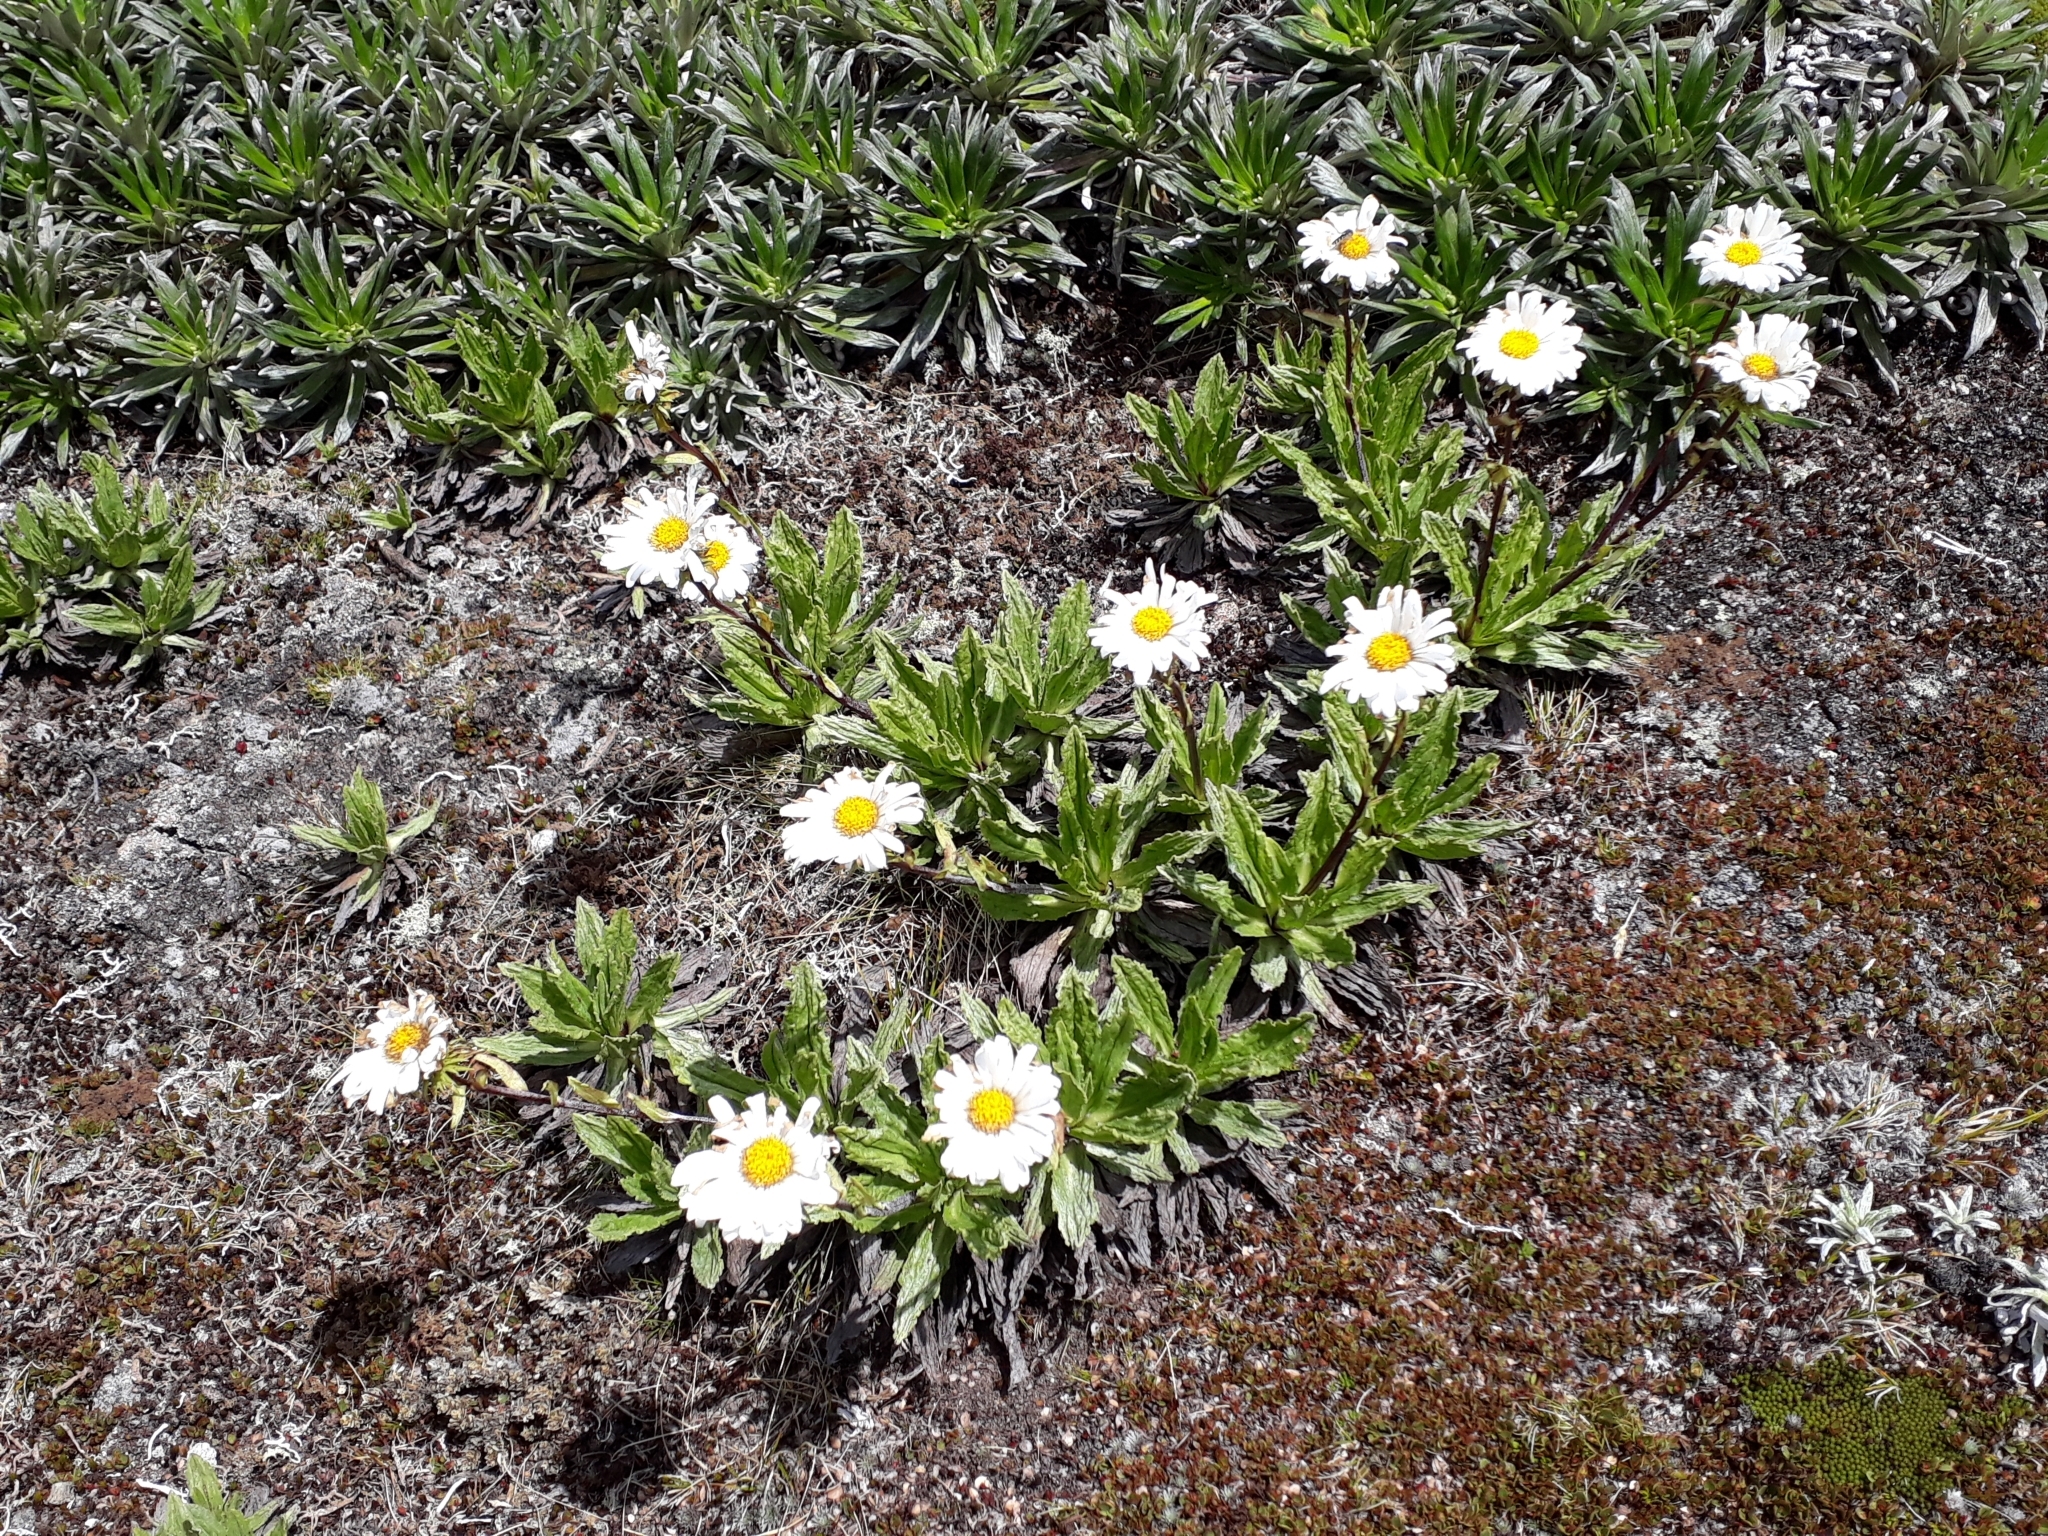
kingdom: Plantae
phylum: Tracheophyta
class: Magnoliopsida
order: Asterales
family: Asteraceae
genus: Celmisia
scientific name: Celmisia prorepens
